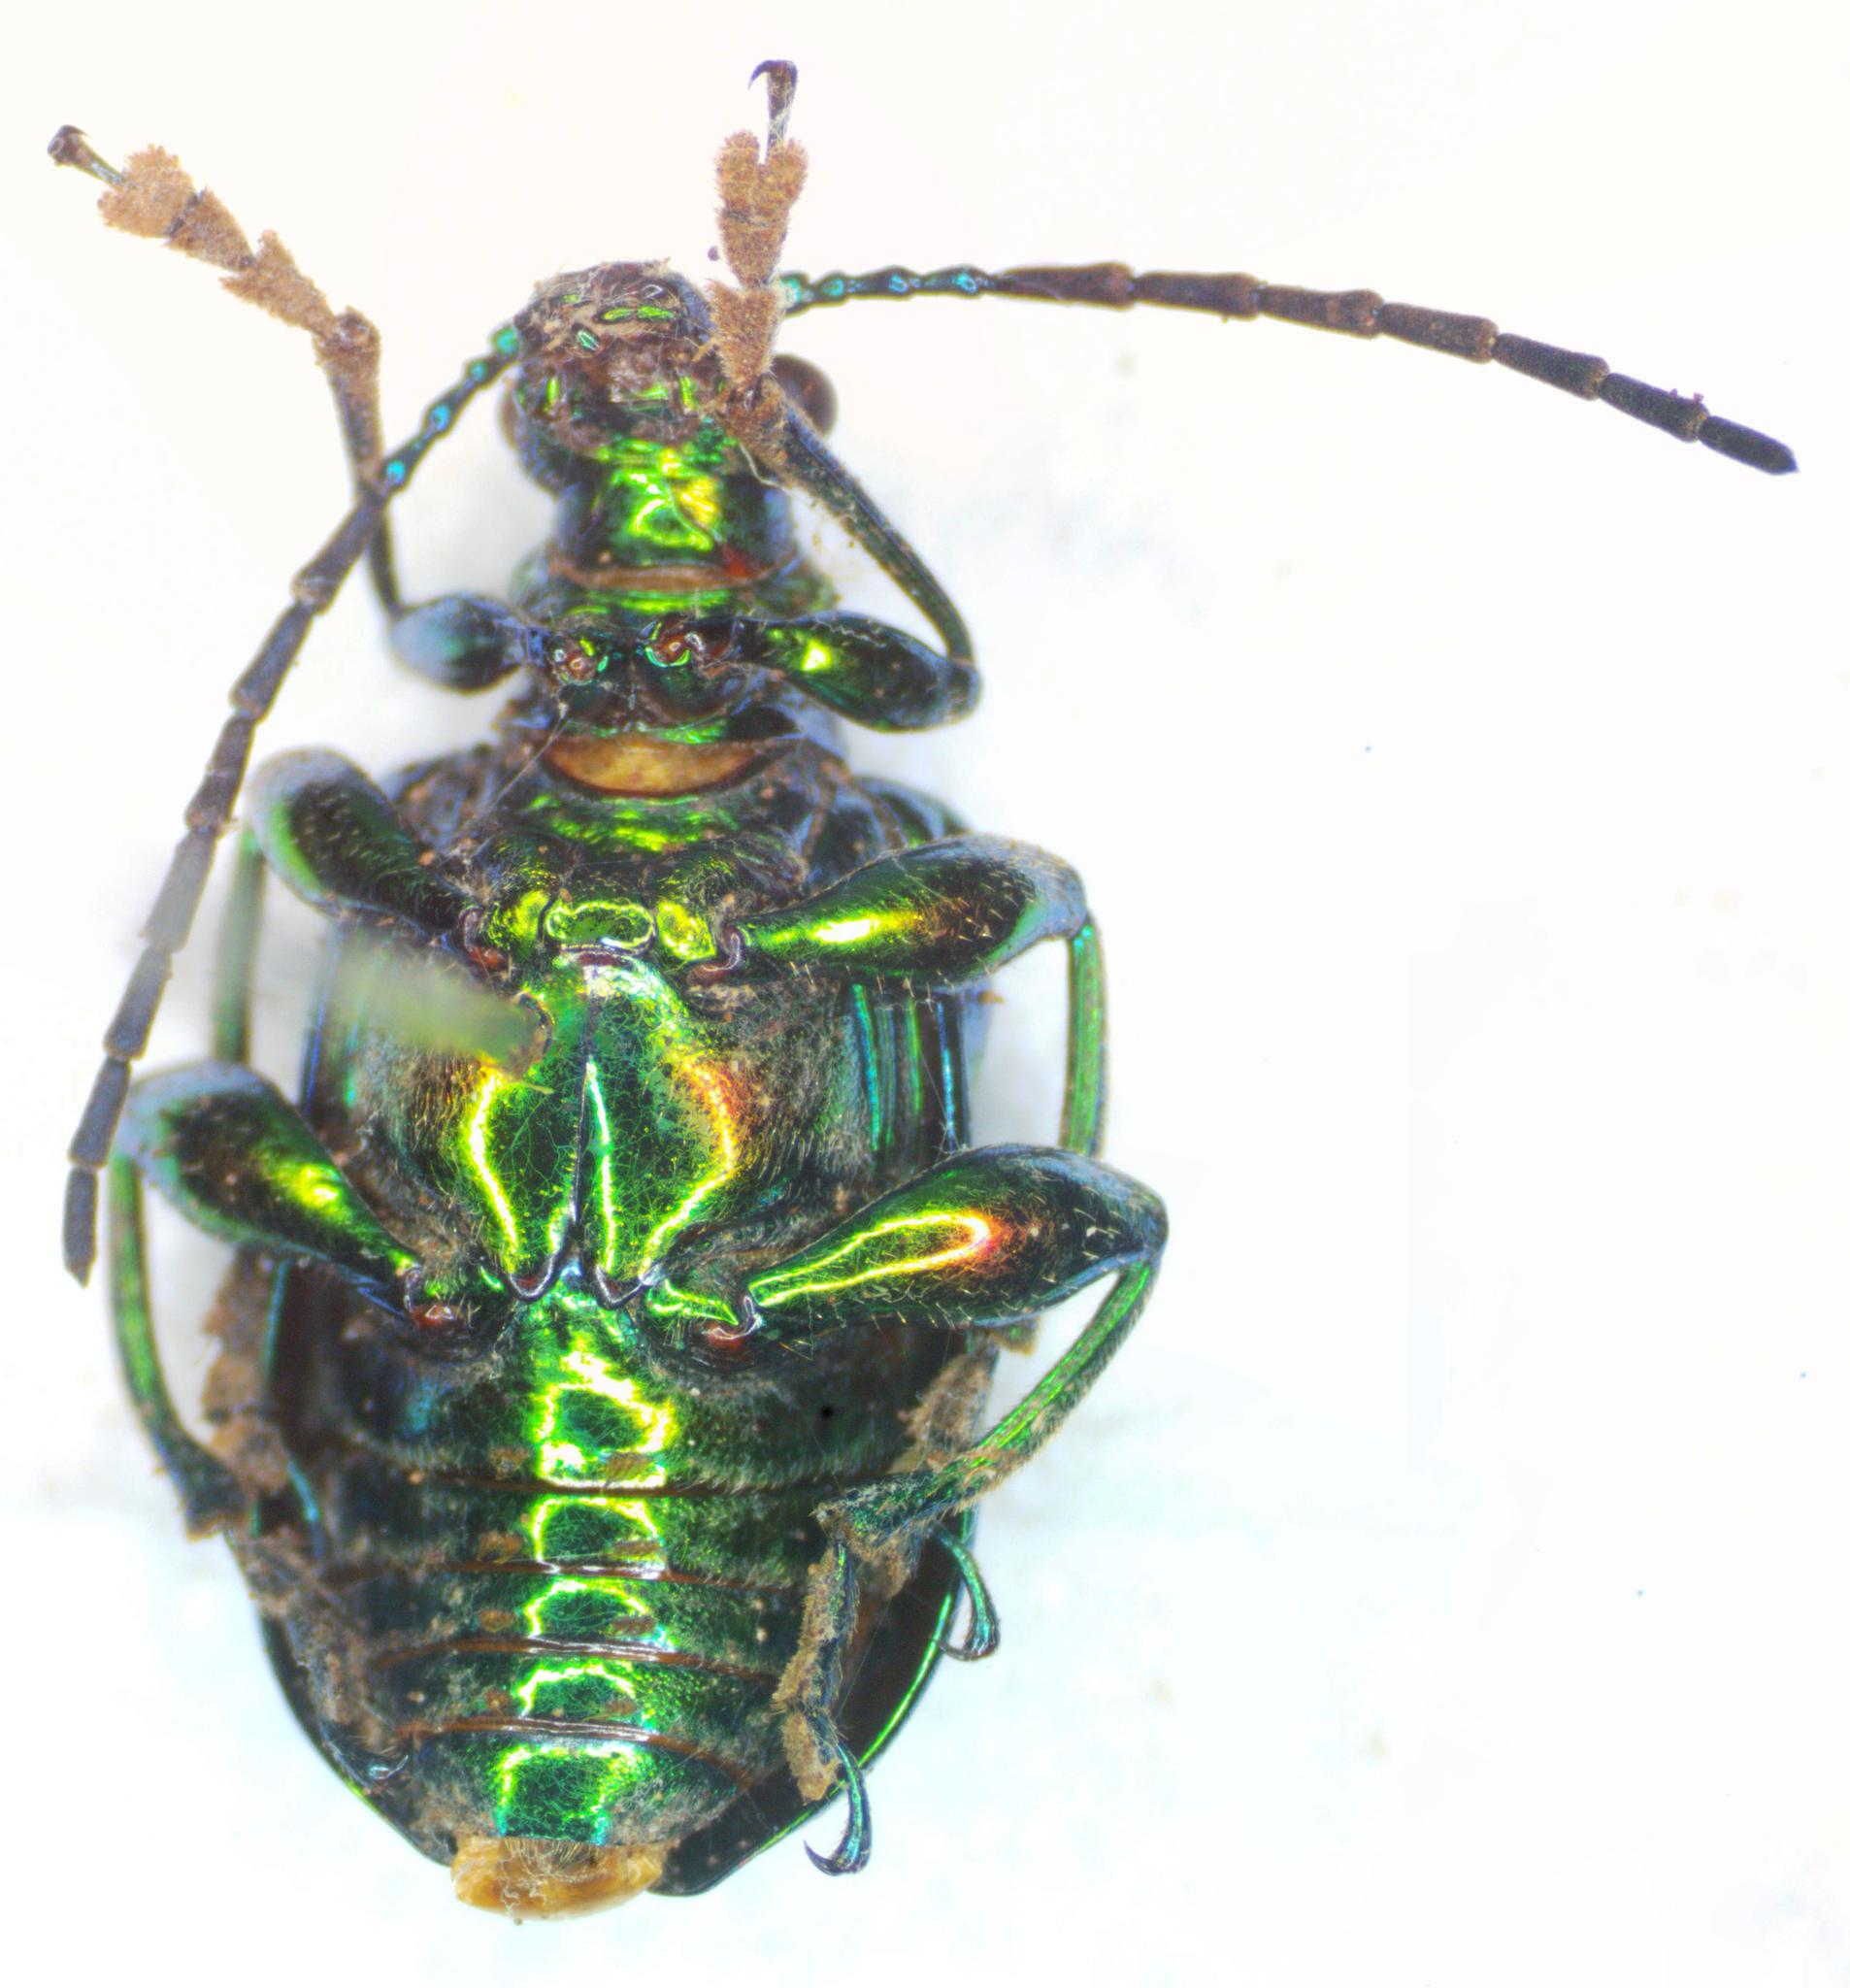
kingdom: Animalia
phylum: Arthropoda
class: Insecta
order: Coleoptera
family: Chrysomelidae
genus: Metopoceris
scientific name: Metopoceris gemmans
